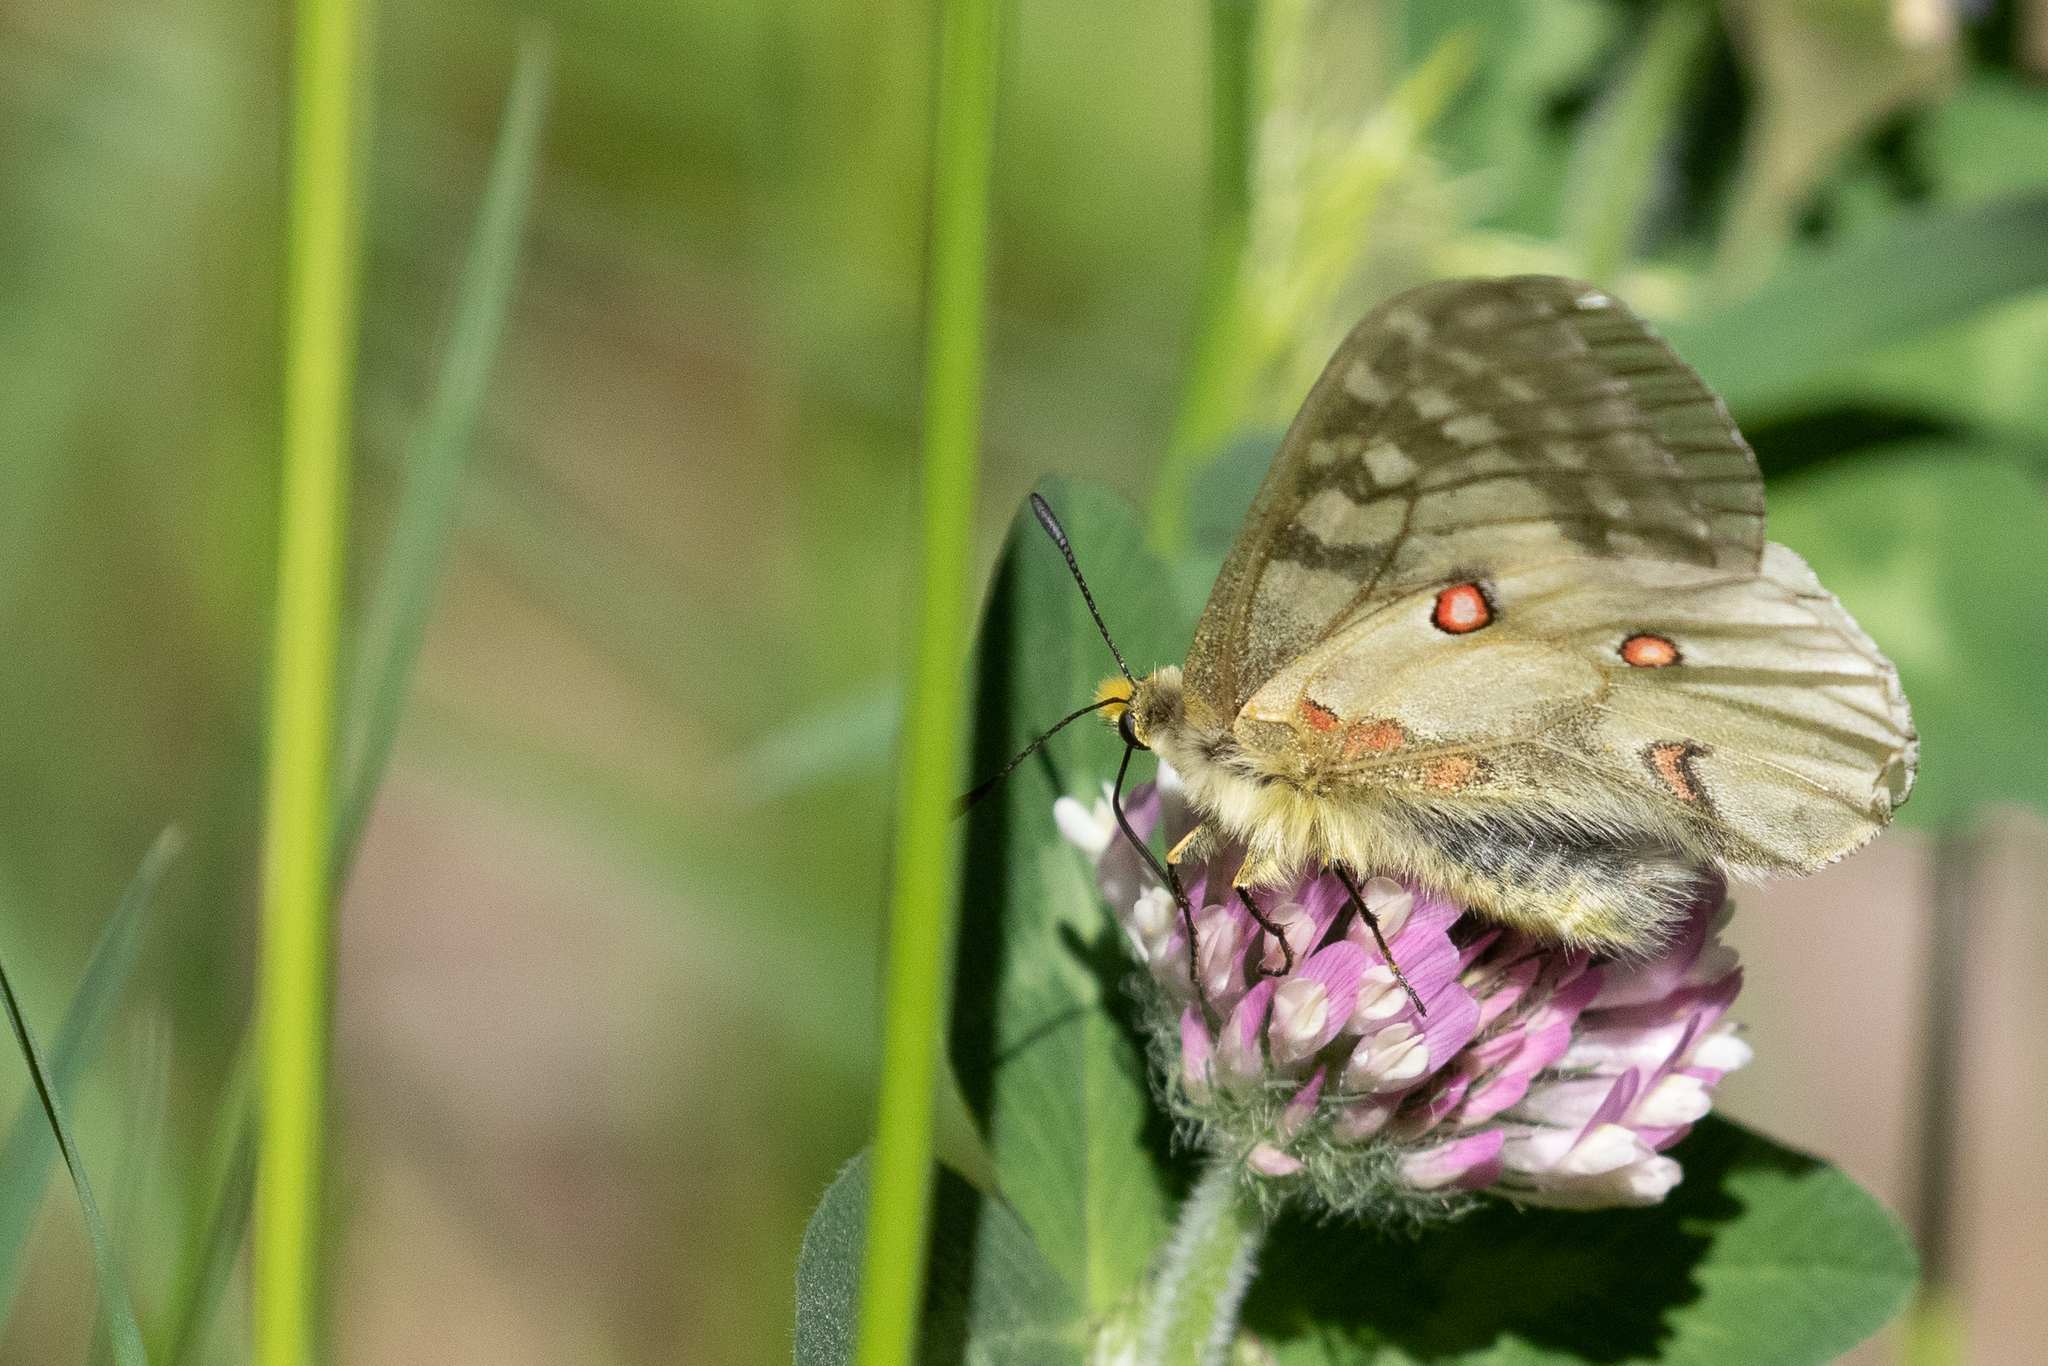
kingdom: Animalia
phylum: Arthropoda
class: Insecta
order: Lepidoptera
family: Papilionidae
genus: Parnassius
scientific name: Parnassius clodius
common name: American apollo
